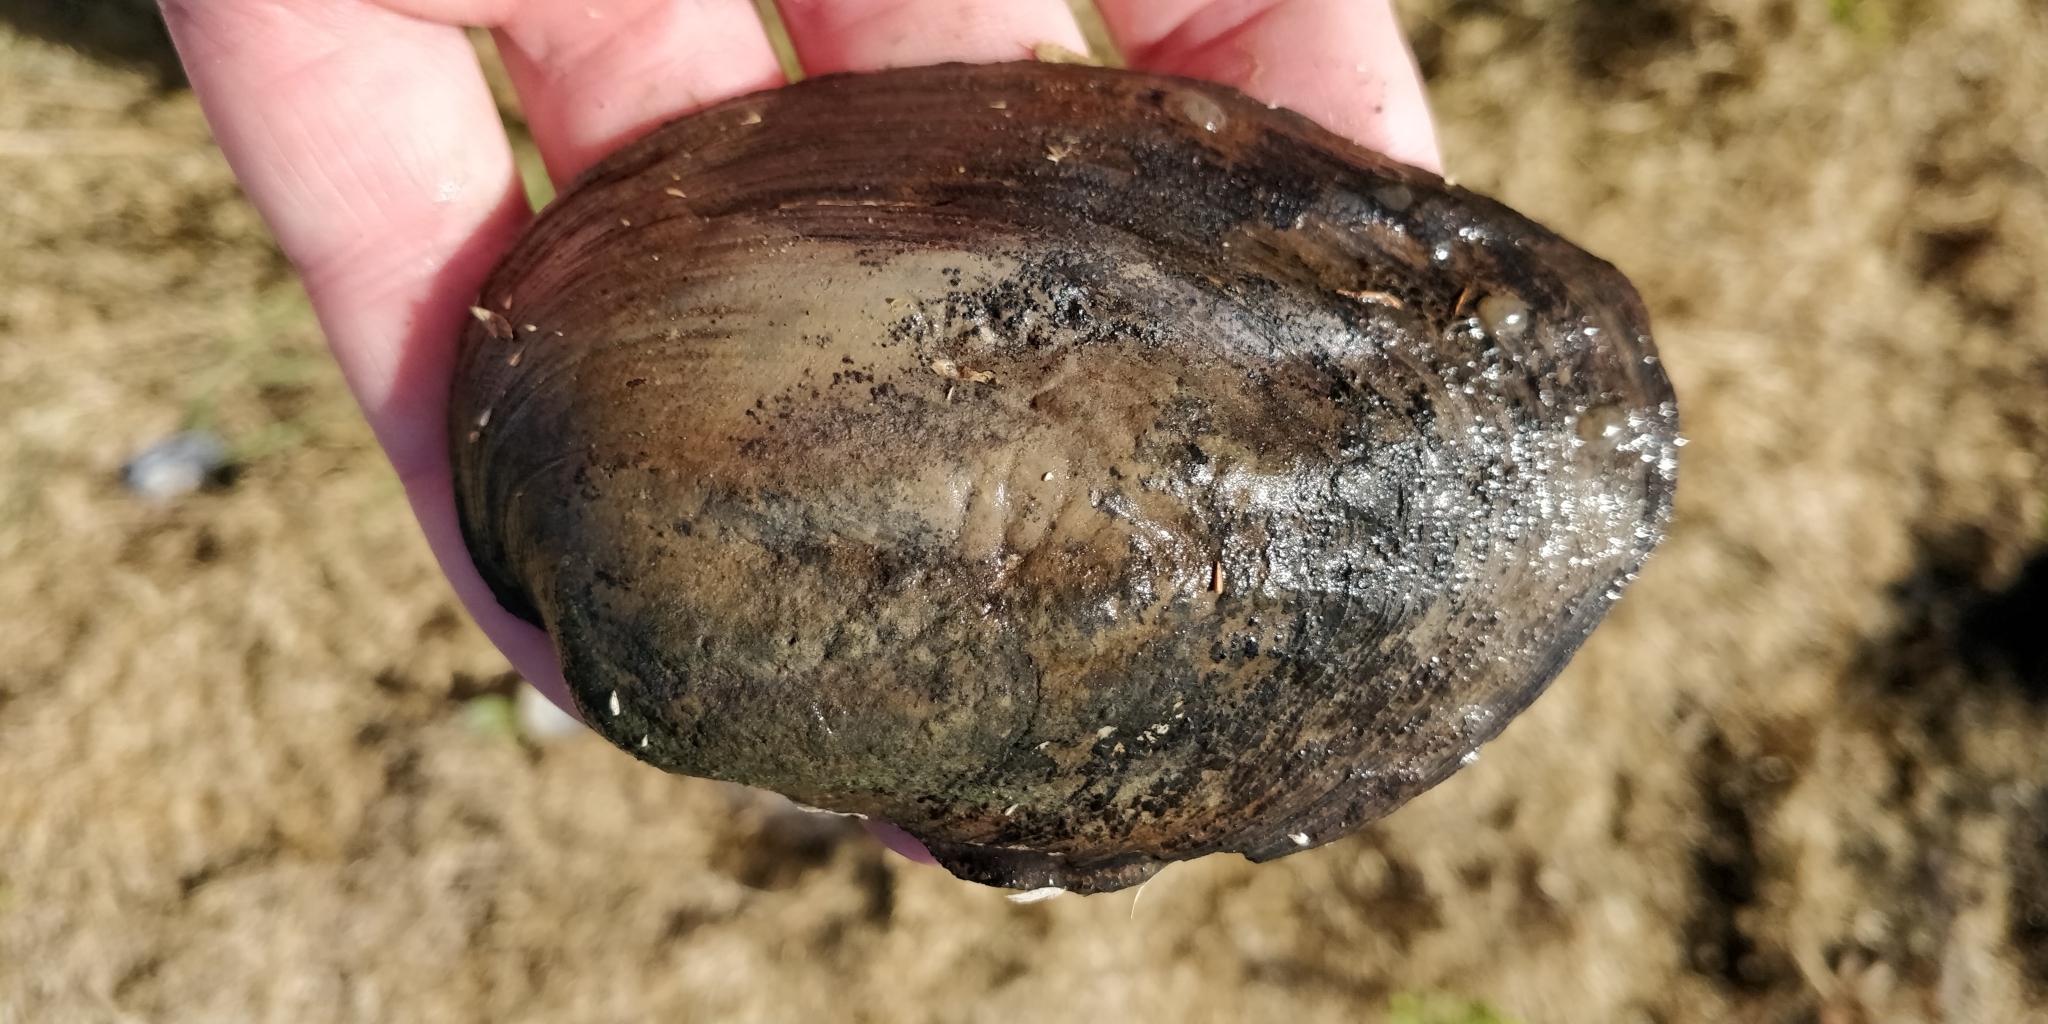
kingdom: Animalia
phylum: Mollusca
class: Bivalvia
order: Unionida
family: Unionidae
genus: Amblema
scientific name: Amblema plicata
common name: Threeridge
